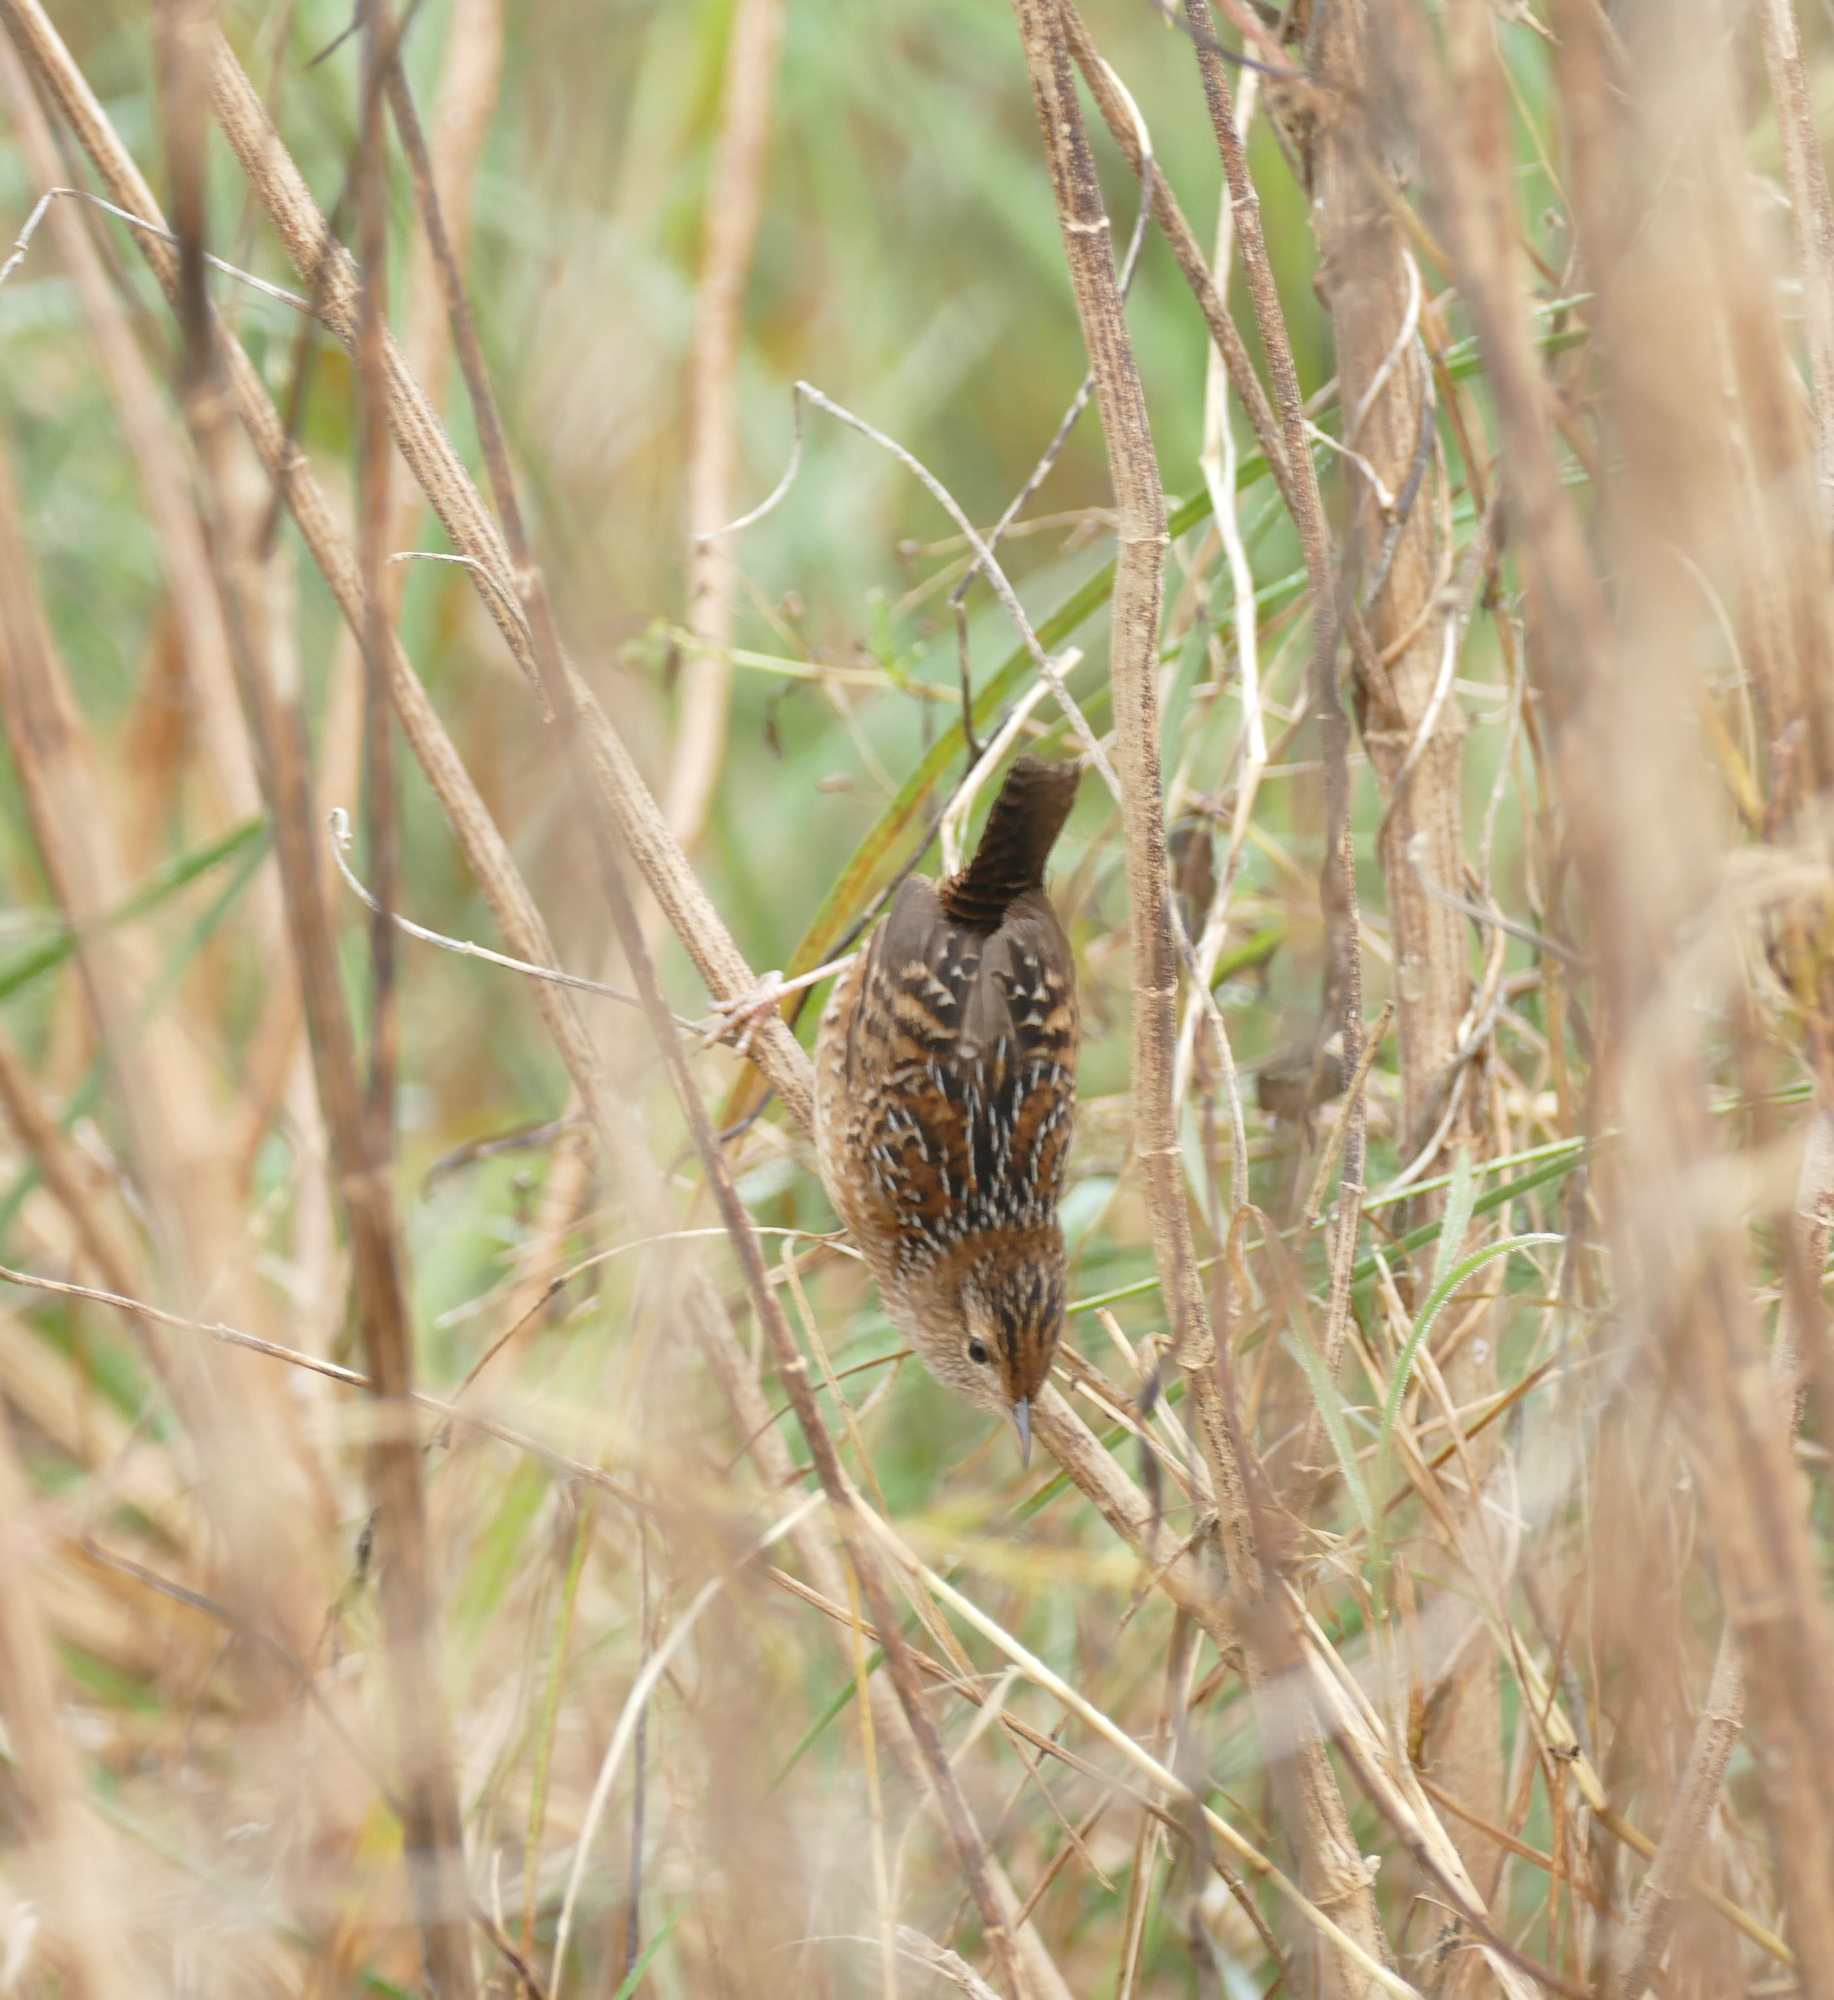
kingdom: Animalia
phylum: Chordata
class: Aves
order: Passeriformes
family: Troglodytidae
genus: Cistothorus
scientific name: Cistothorus platensis
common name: Sedge wren
